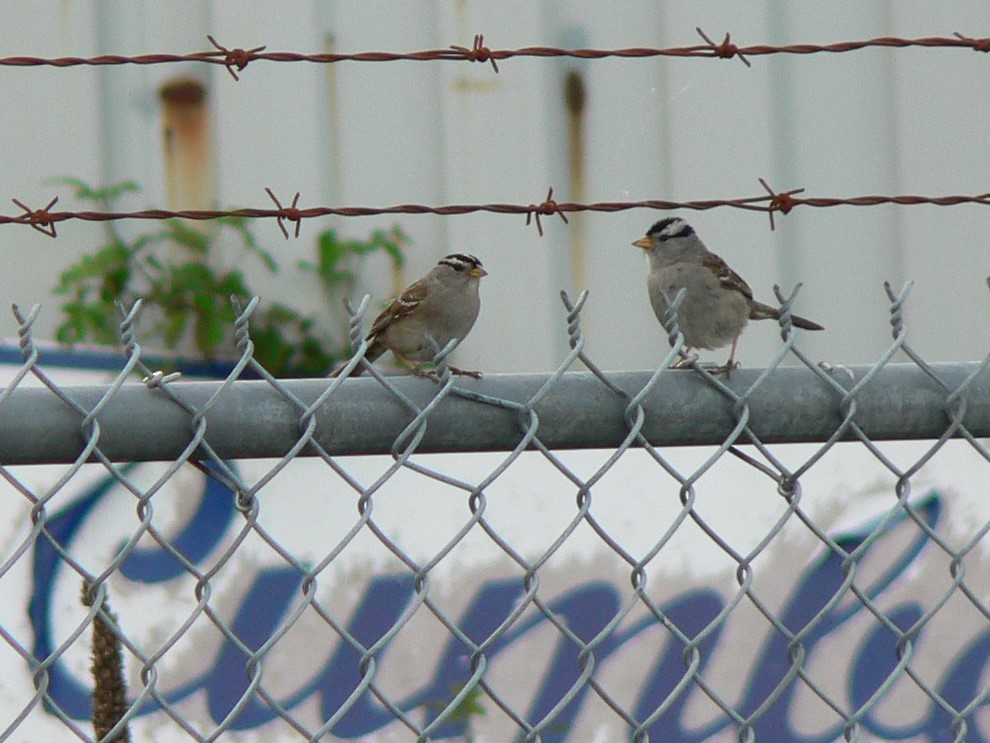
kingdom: Animalia
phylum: Chordata
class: Aves
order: Passeriformes
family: Passerellidae
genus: Zonotrichia
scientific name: Zonotrichia leucophrys
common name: White-crowned sparrow
